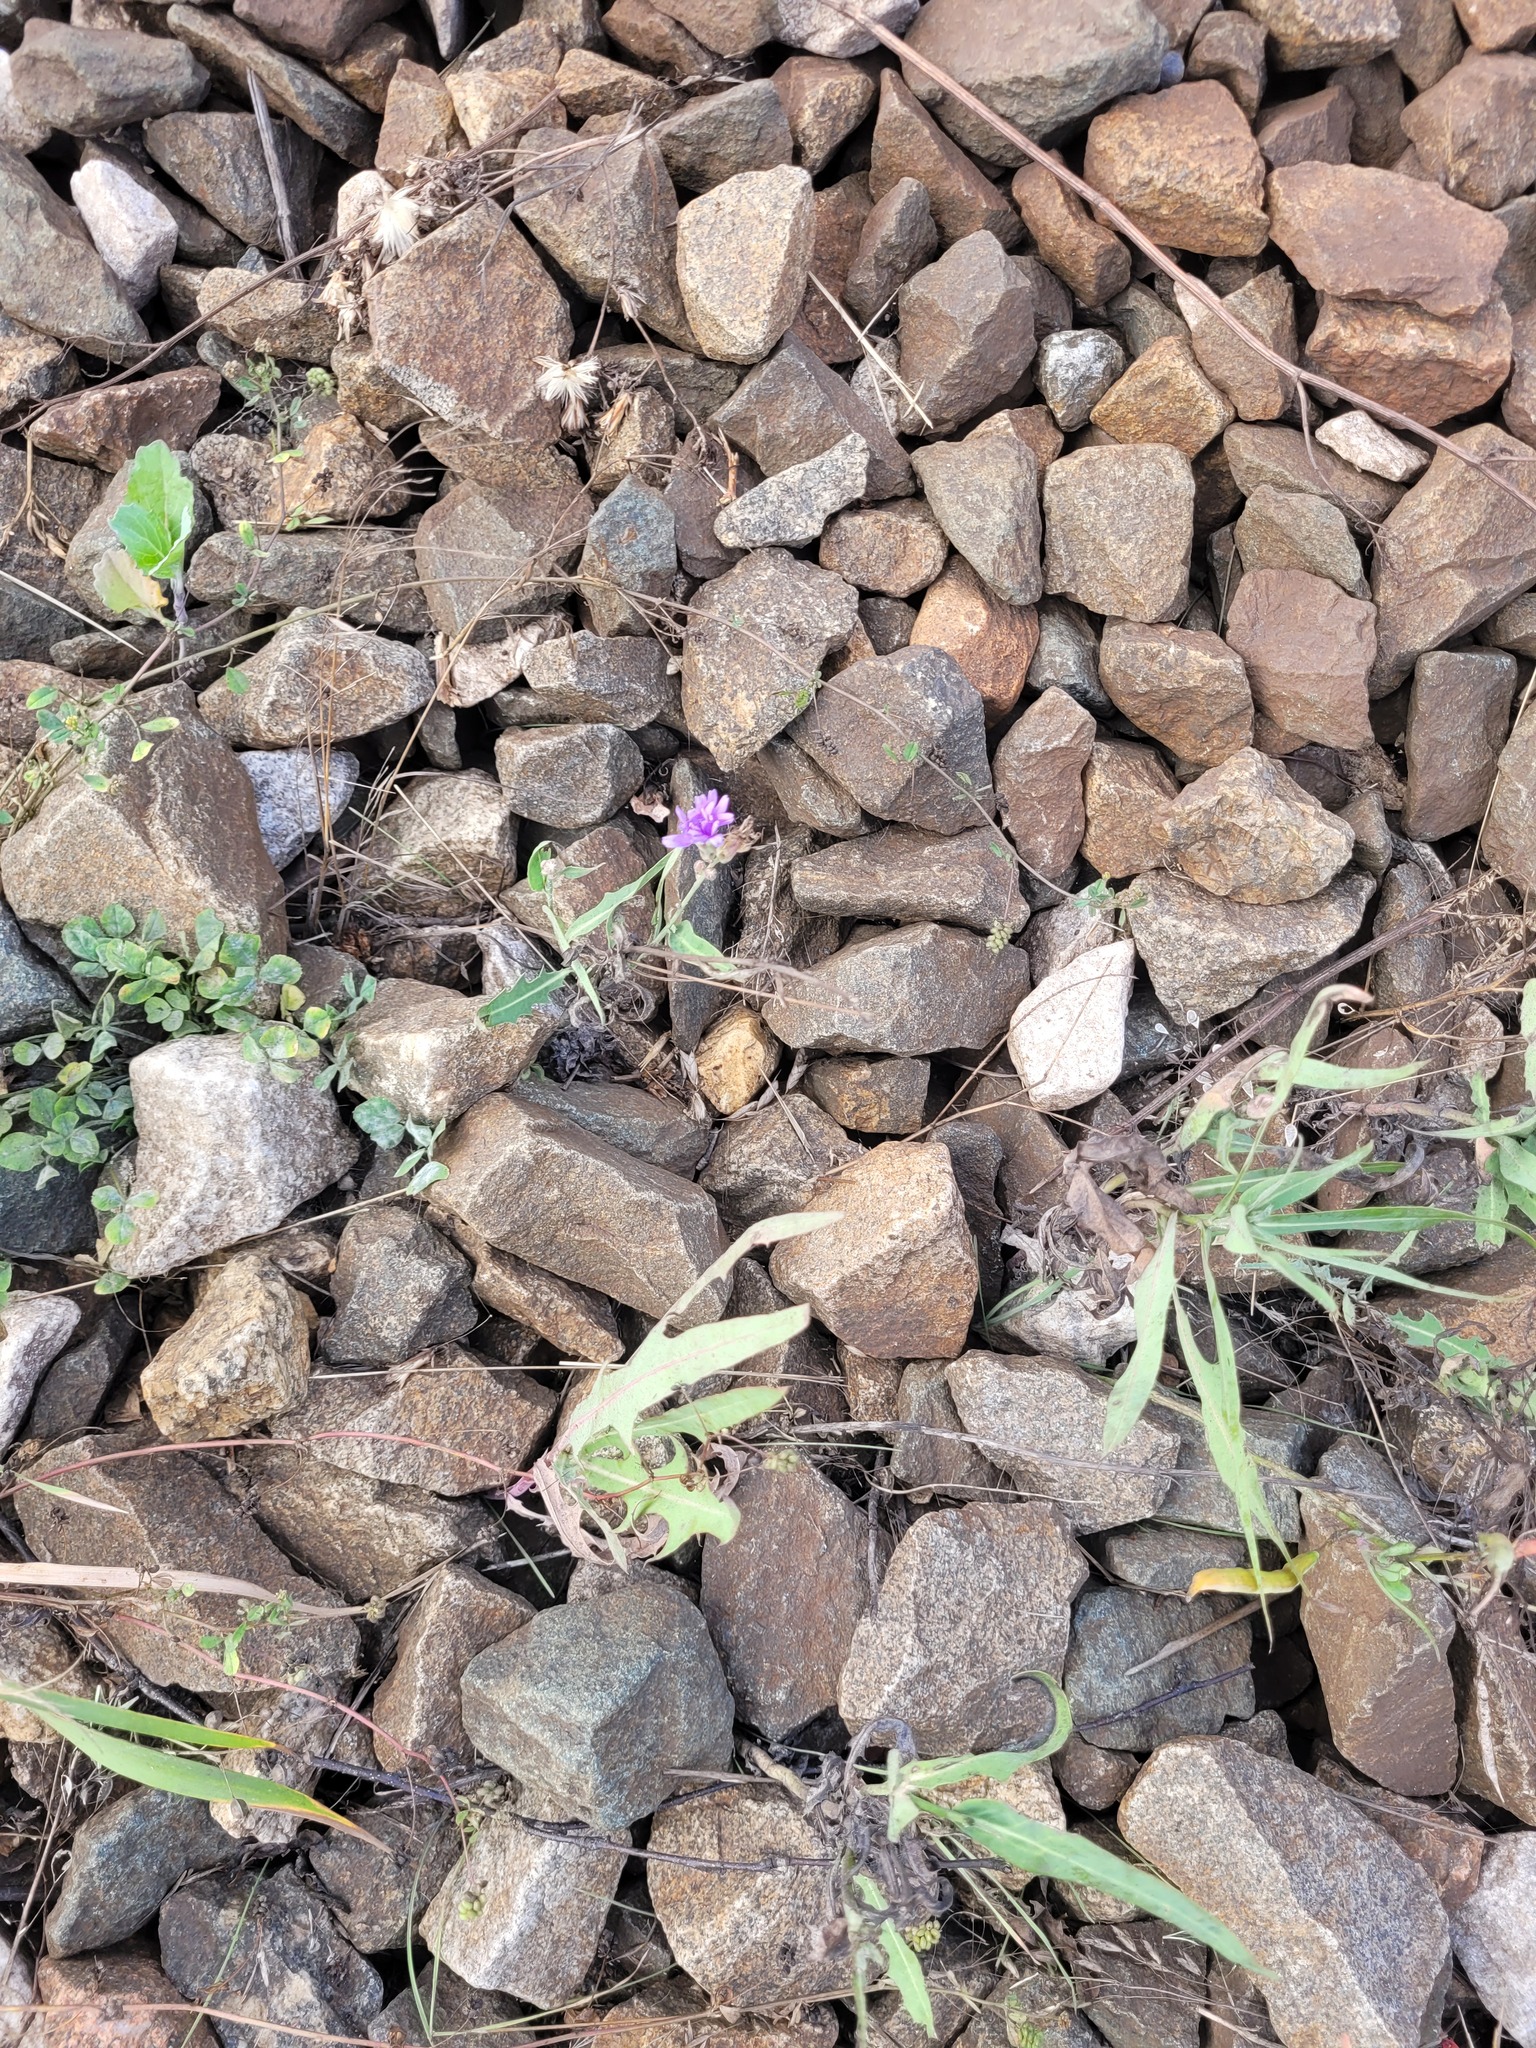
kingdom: Plantae
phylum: Tracheophyta
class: Magnoliopsida
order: Asterales
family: Asteraceae
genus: Lactuca
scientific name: Lactuca tatarica
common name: Blue lettuce
